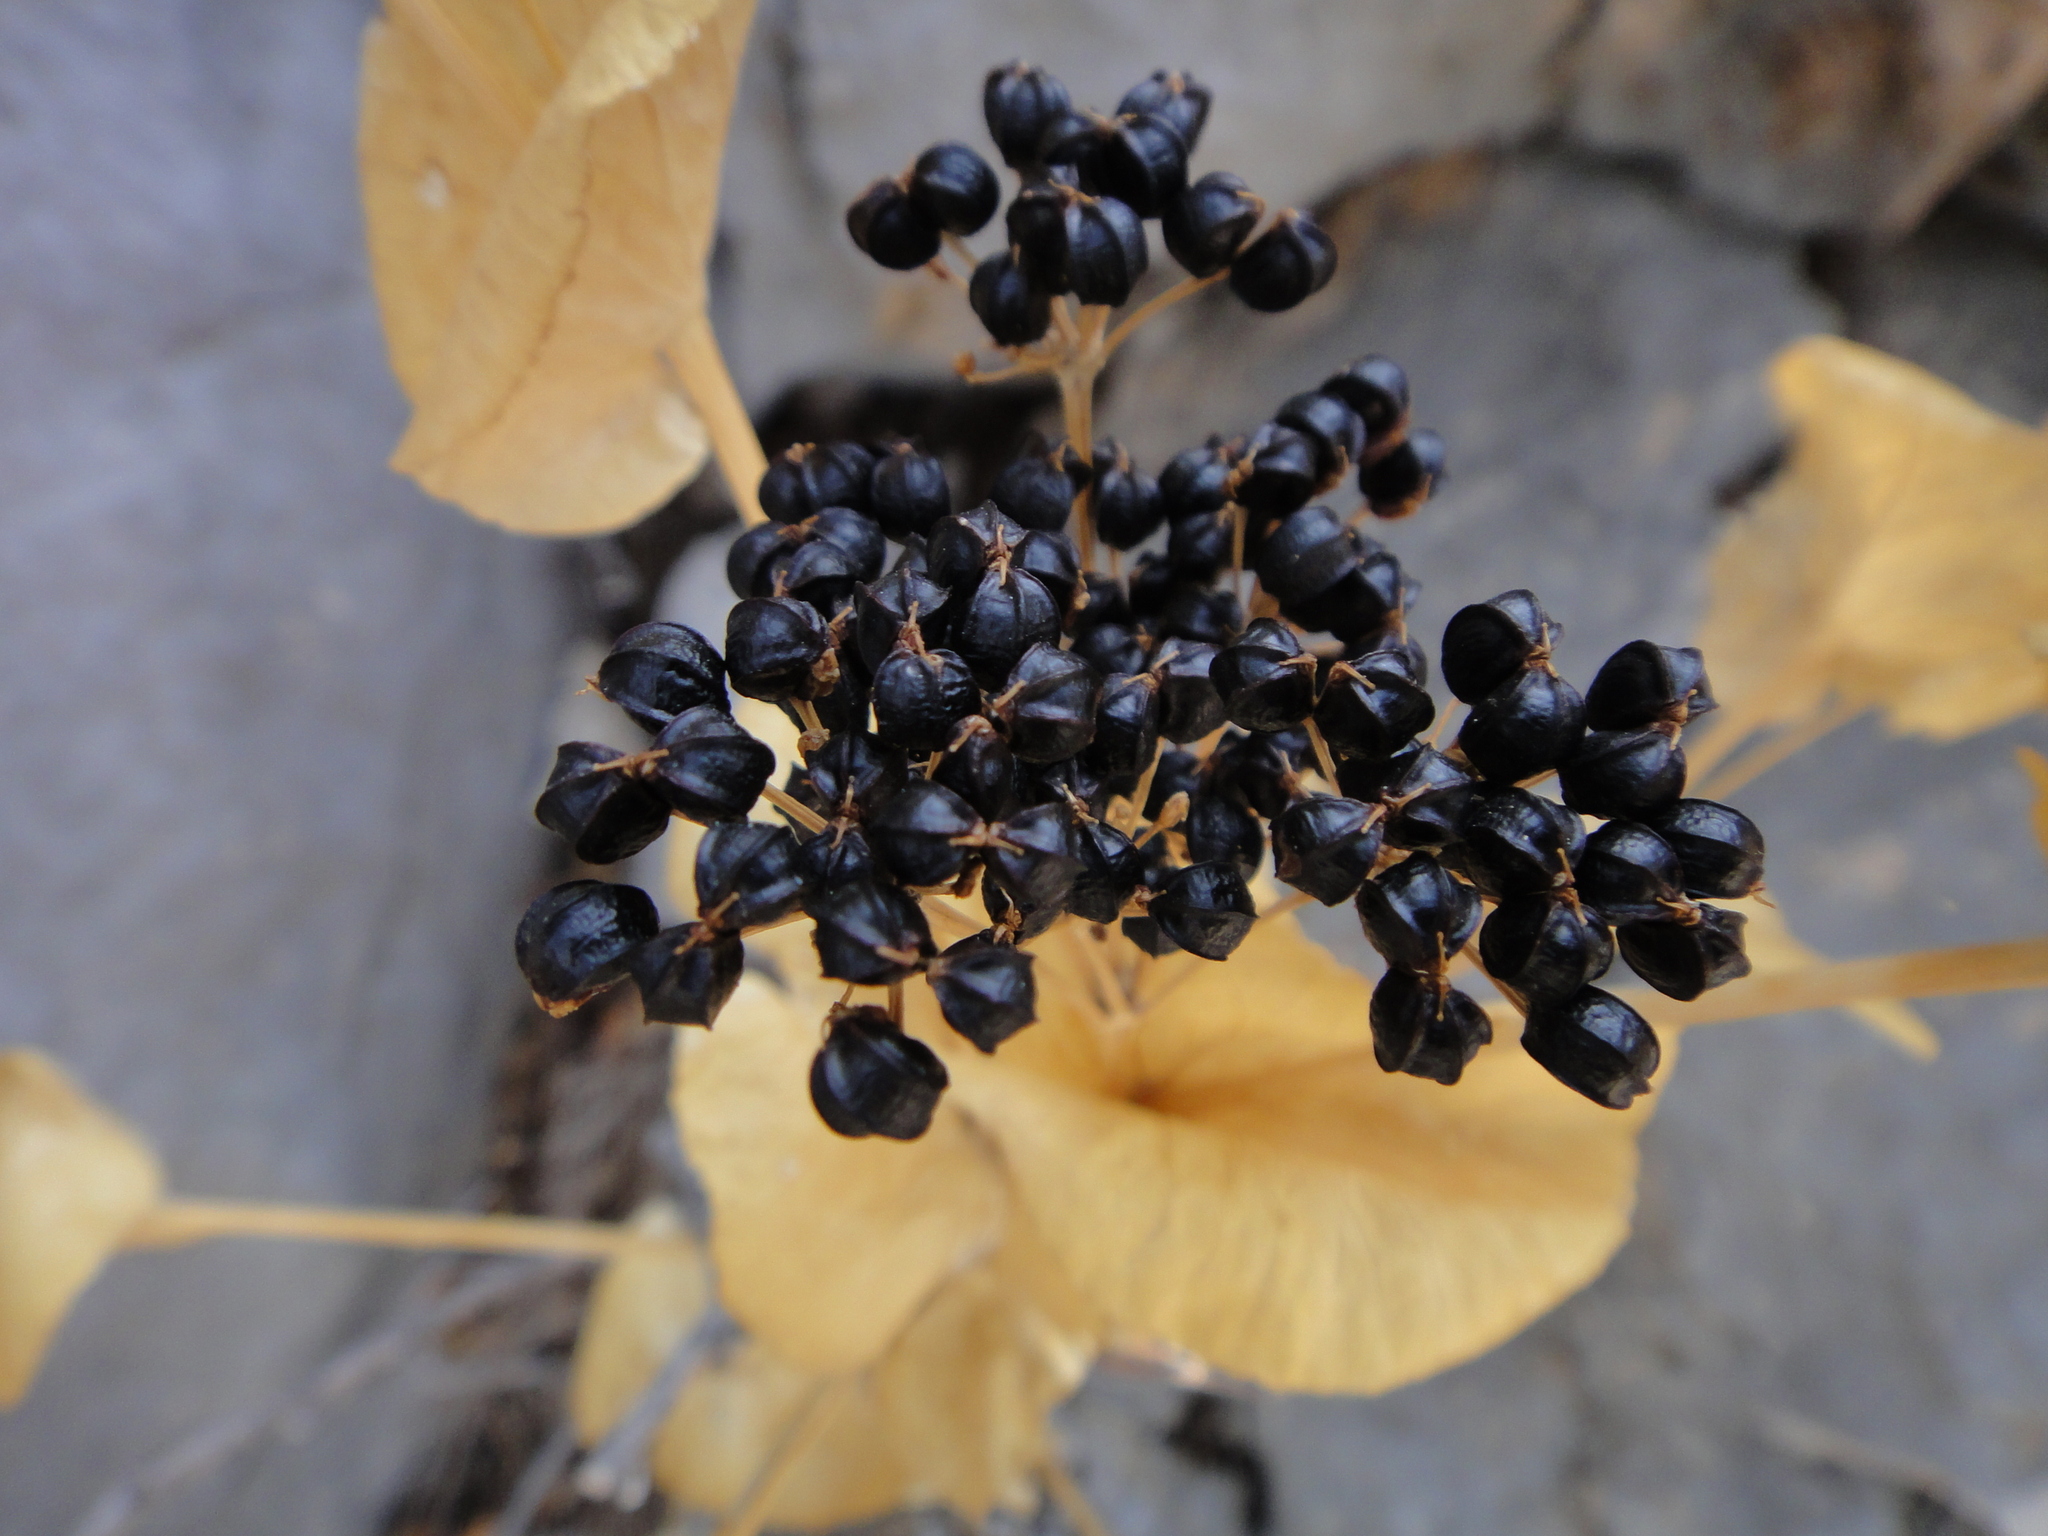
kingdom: Plantae
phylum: Tracheophyta
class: Magnoliopsida
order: Apiales
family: Apiaceae
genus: Smyrnium
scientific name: Smyrnium perfoliatum
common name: Perfoliate alexanders
